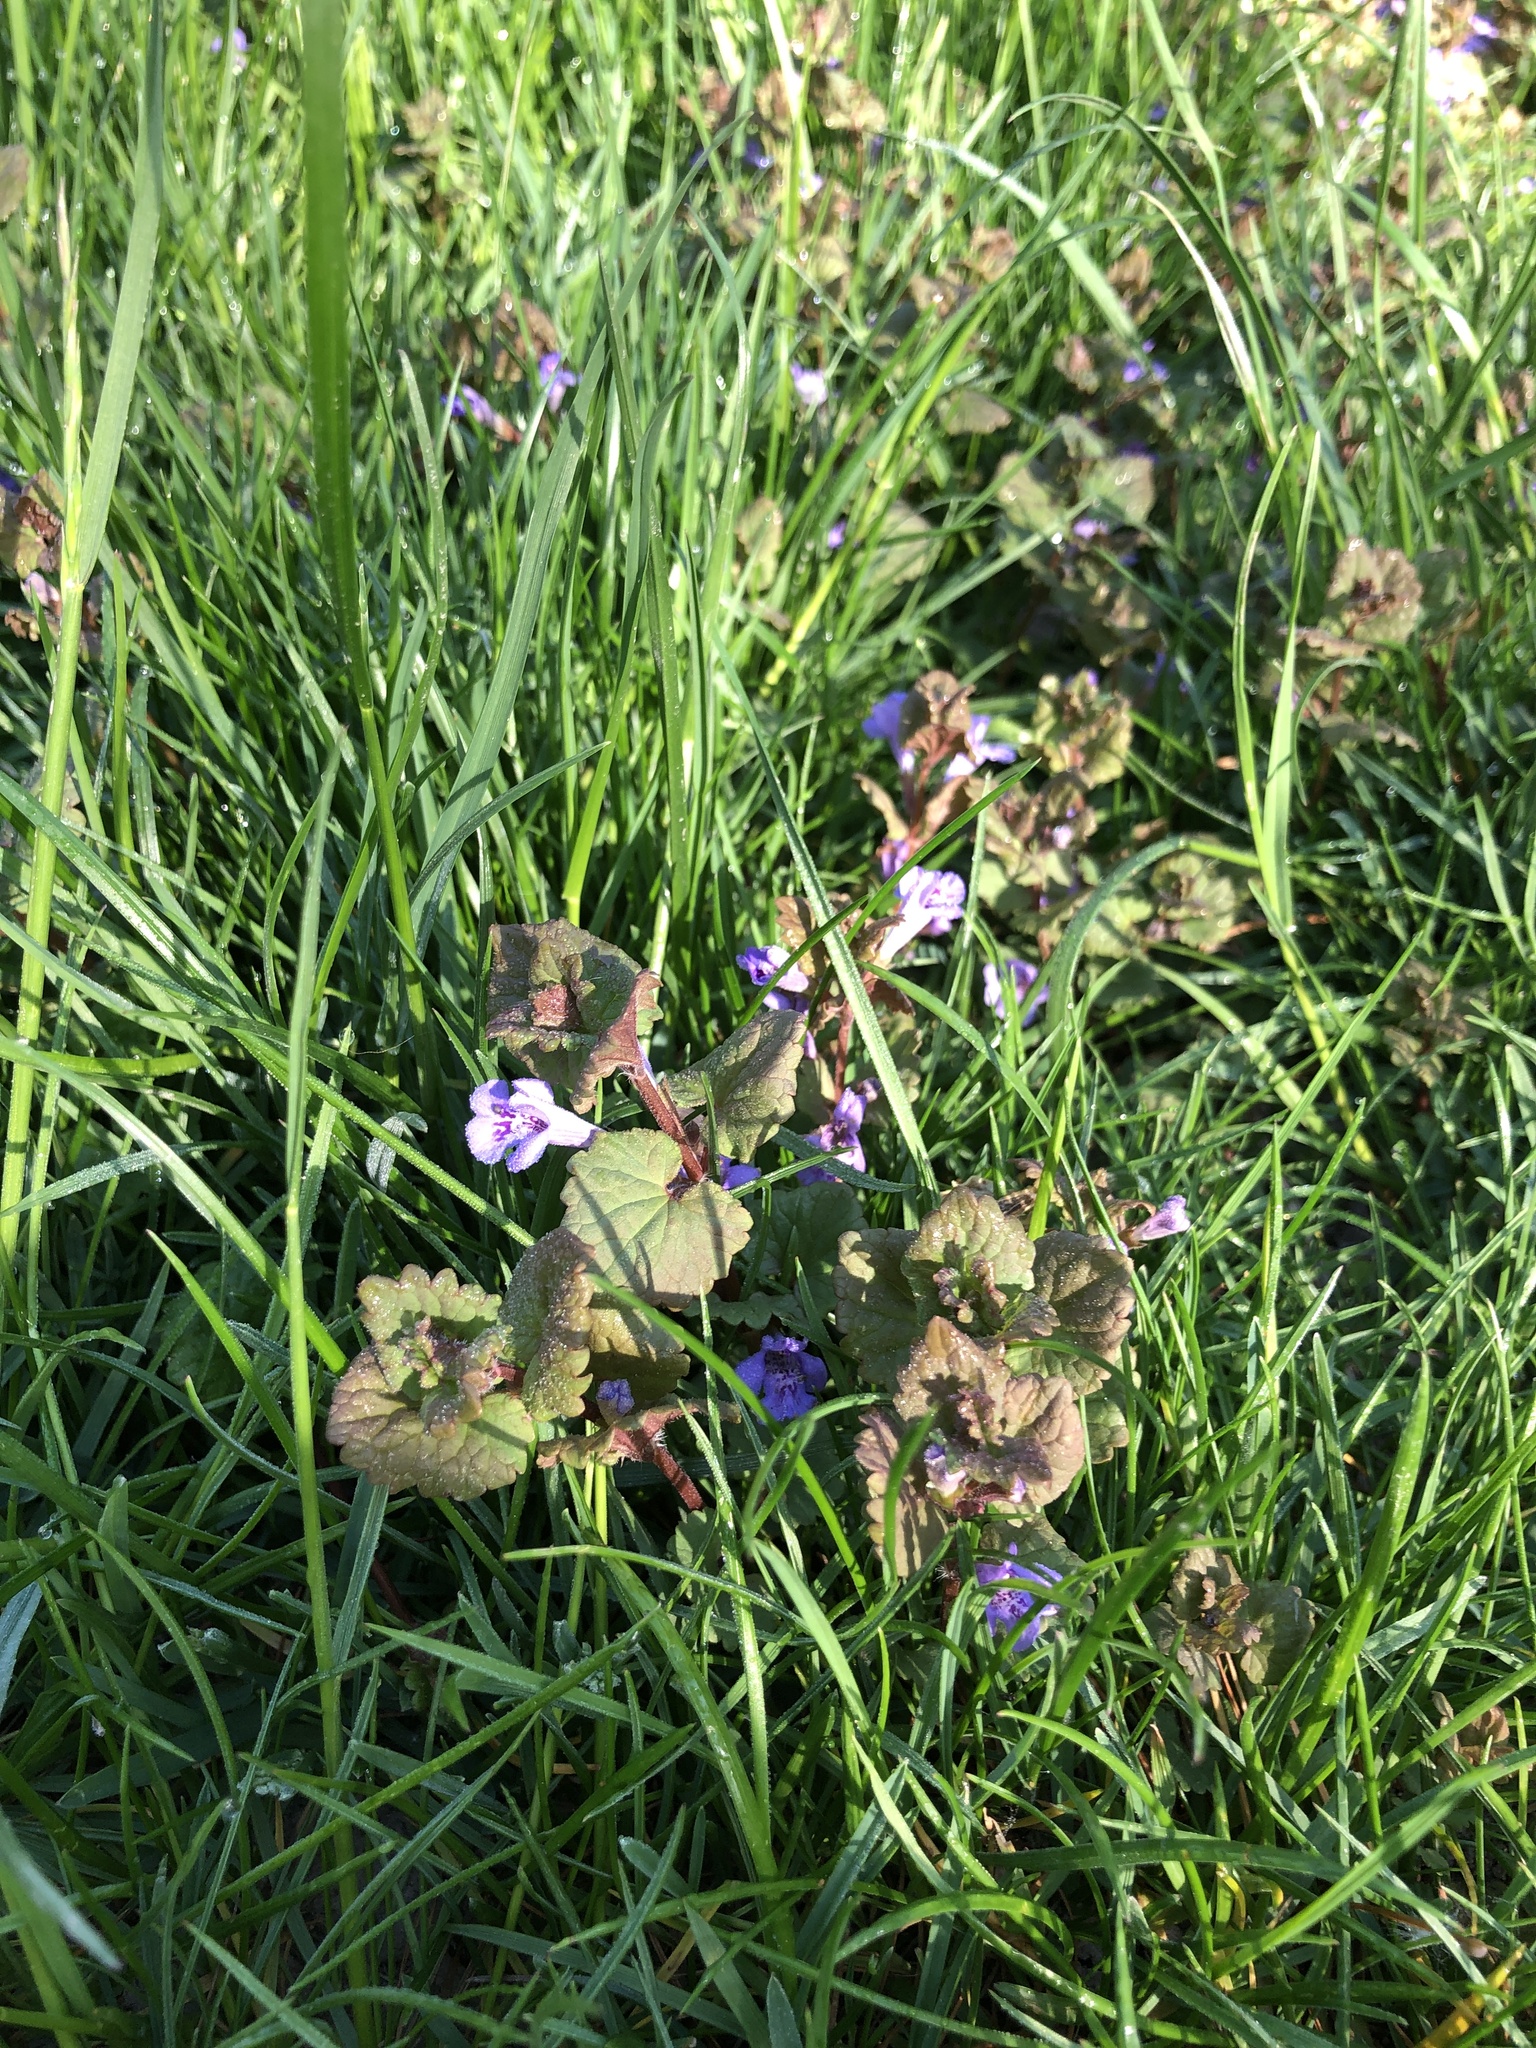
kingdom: Plantae
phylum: Tracheophyta
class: Magnoliopsida
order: Lamiales
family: Lamiaceae
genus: Glechoma
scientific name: Glechoma hederacea
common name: Ground ivy
